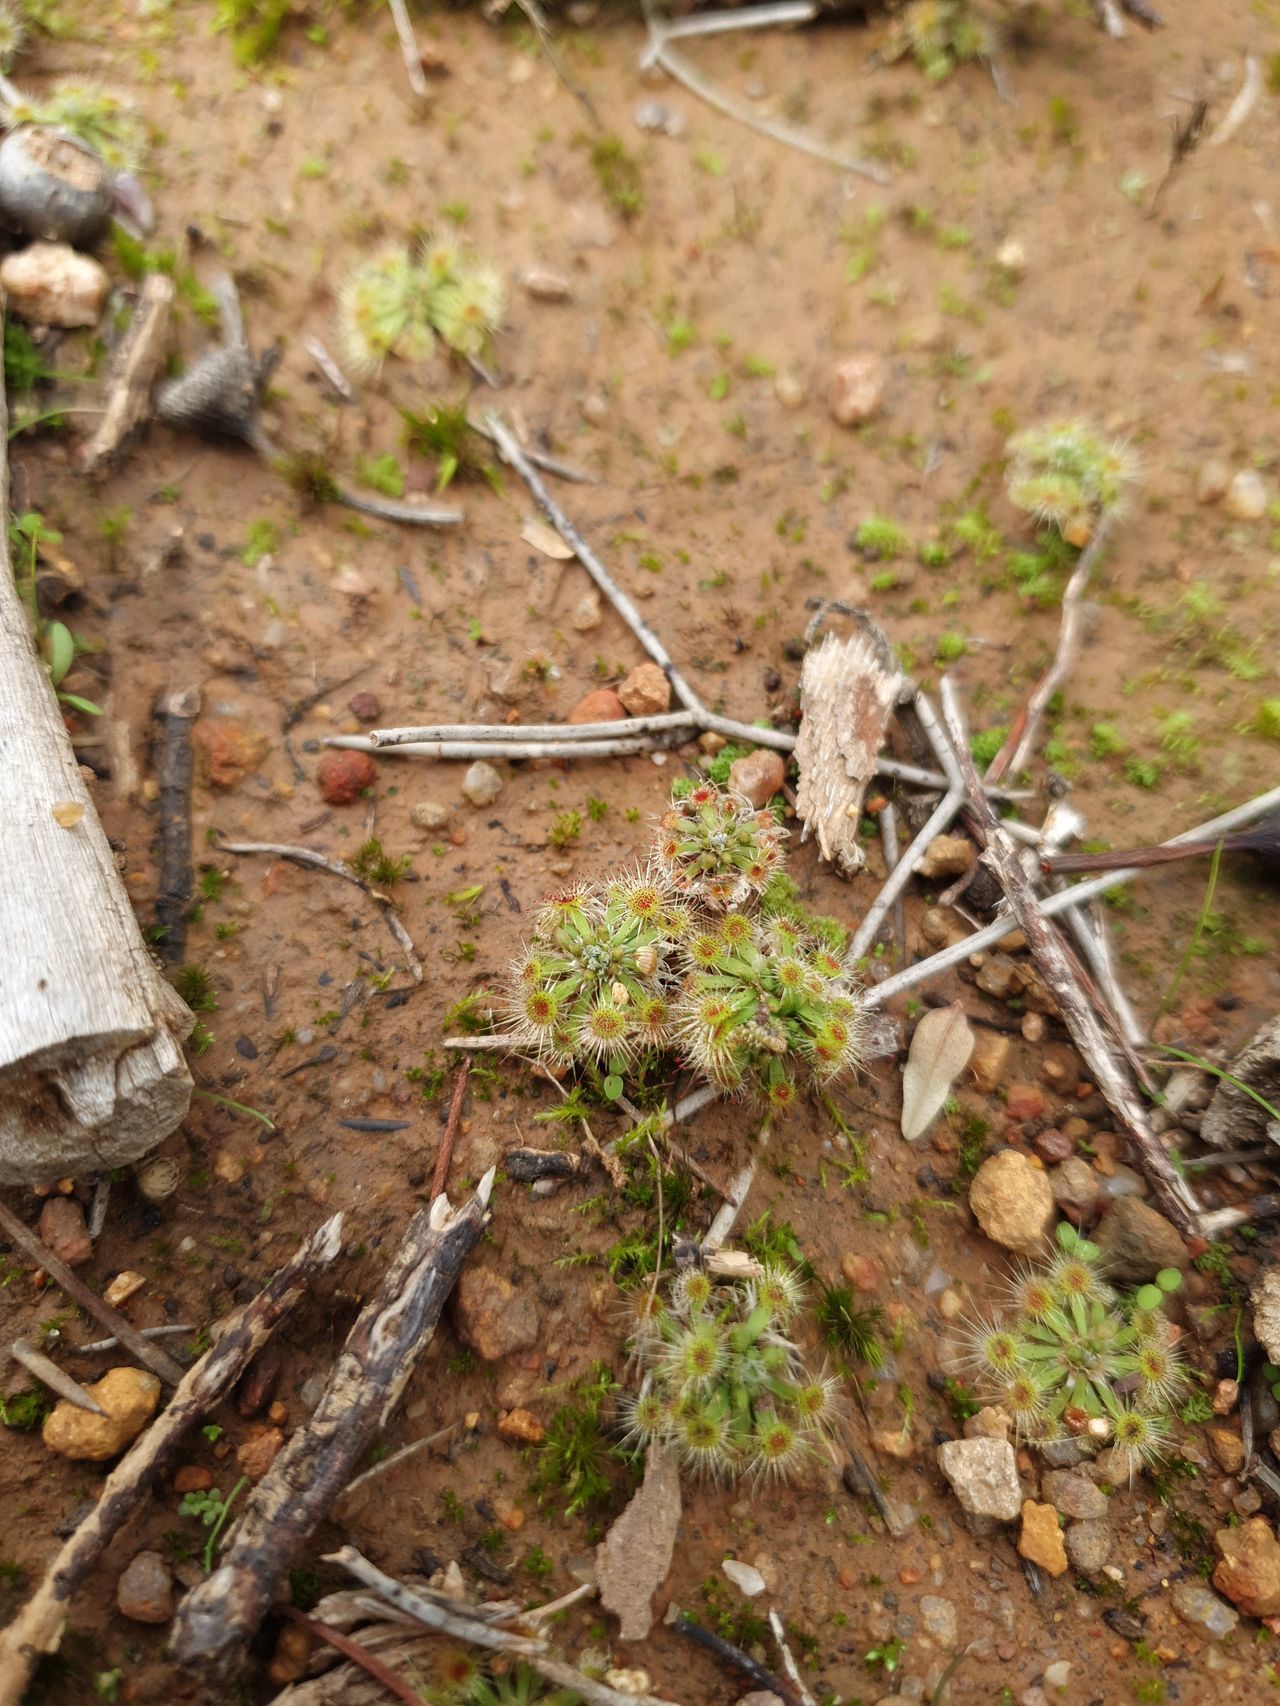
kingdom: Plantae
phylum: Tracheophyta
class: Magnoliopsida
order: Caryophyllales
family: Droseraceae
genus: Drosera
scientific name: Drosera miniata
